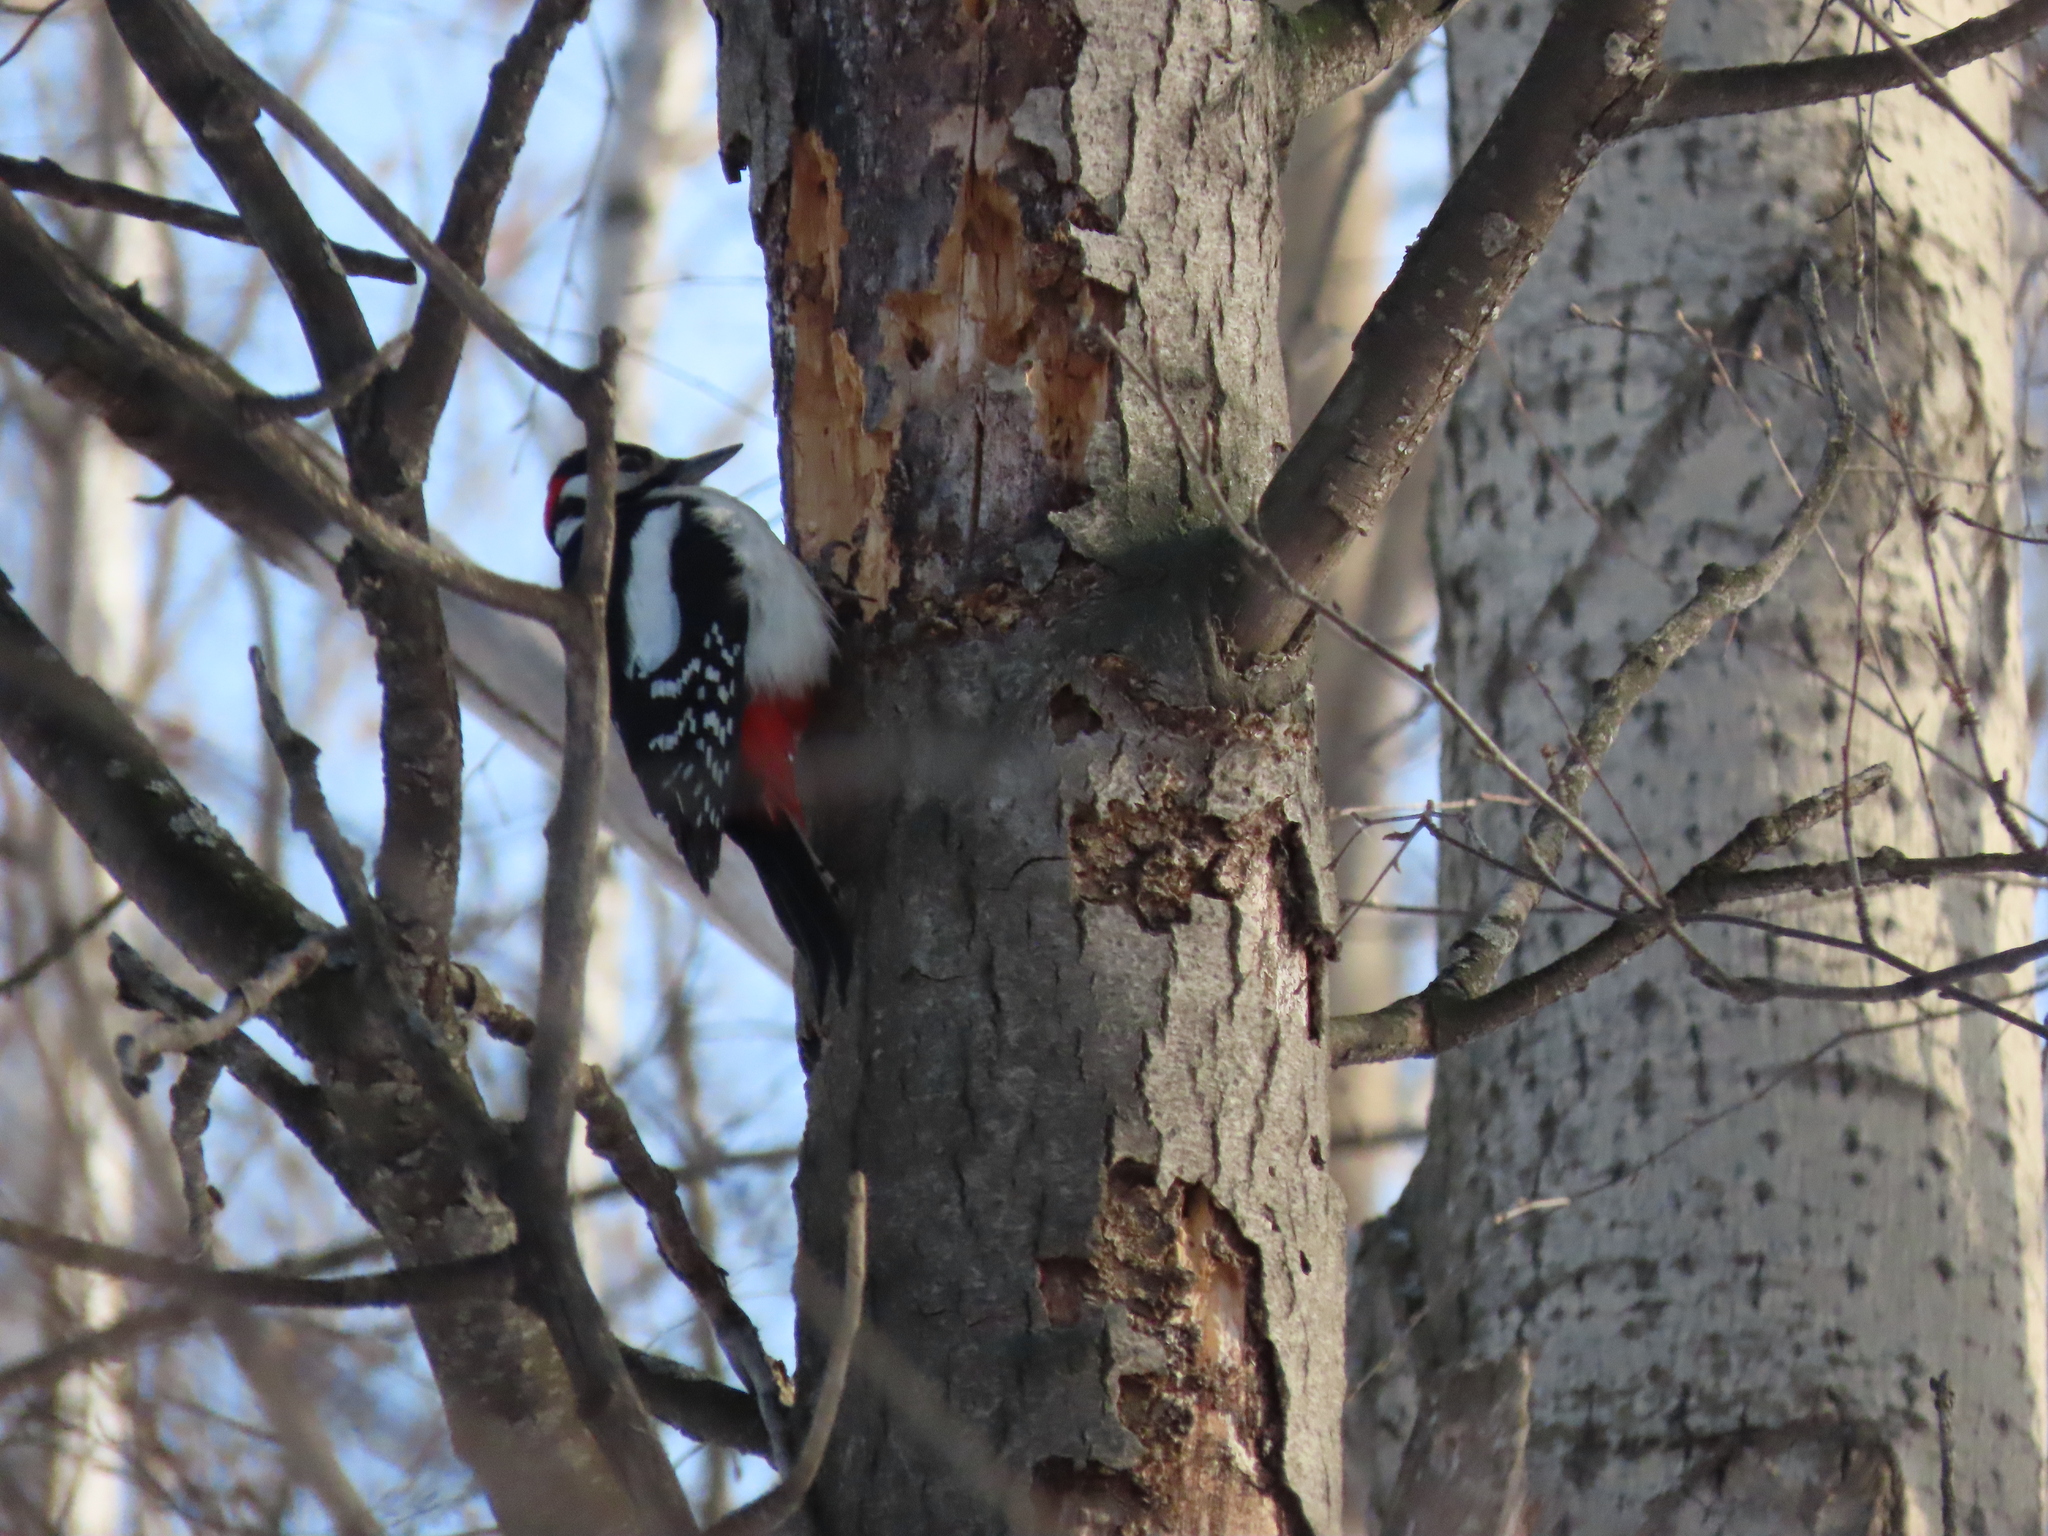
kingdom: Animalia
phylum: Chordata
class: Aves
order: Piciformes
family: Picidae
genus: Dendrocopos
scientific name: Dendrocopos major
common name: Great spotted woodpecker
